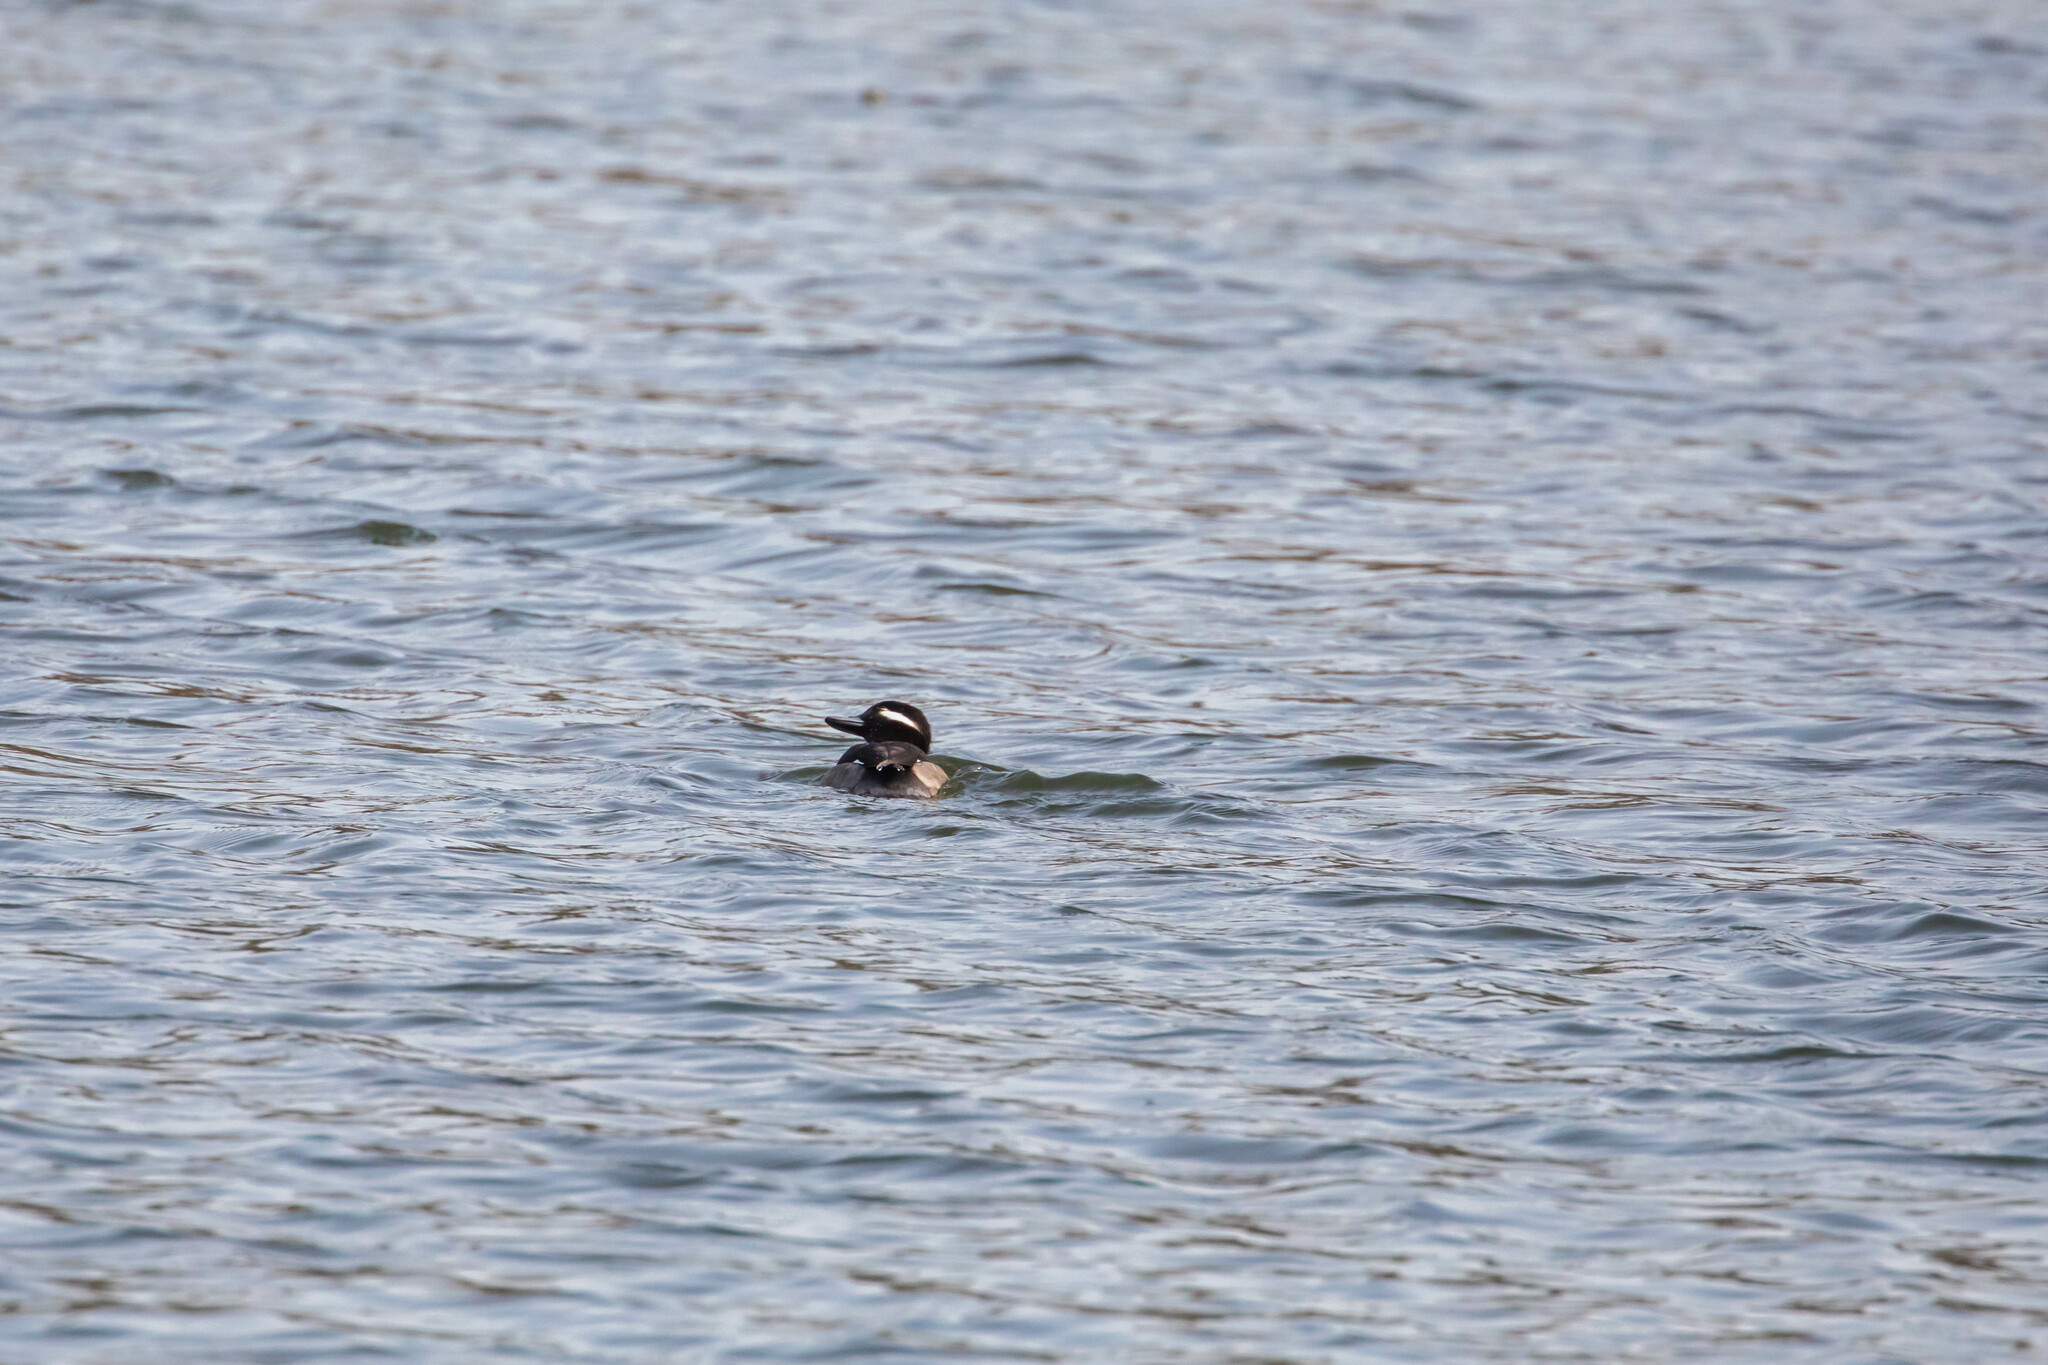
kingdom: Animalia
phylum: Chordata
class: Aves
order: Anseriformes
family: Anatidae
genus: Bucephala
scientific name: Bucephala albeola
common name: Bufflehead
